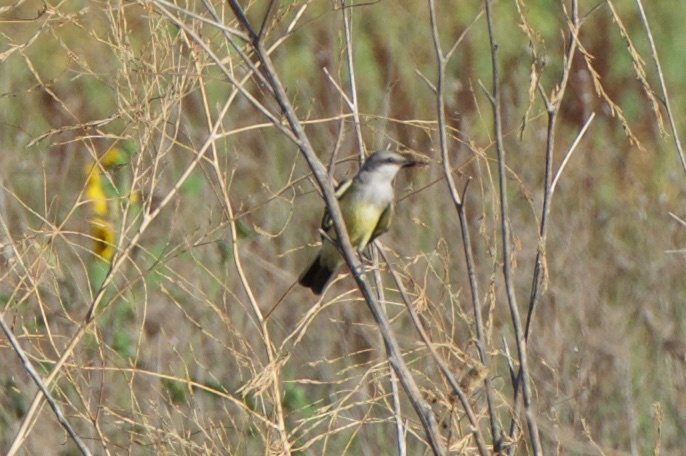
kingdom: Animalia
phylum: Chordata
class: Aves
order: Passeriformes
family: Tyrannidae
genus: Tyrannus
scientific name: Tyrannus verticalis
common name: Western kingbird
